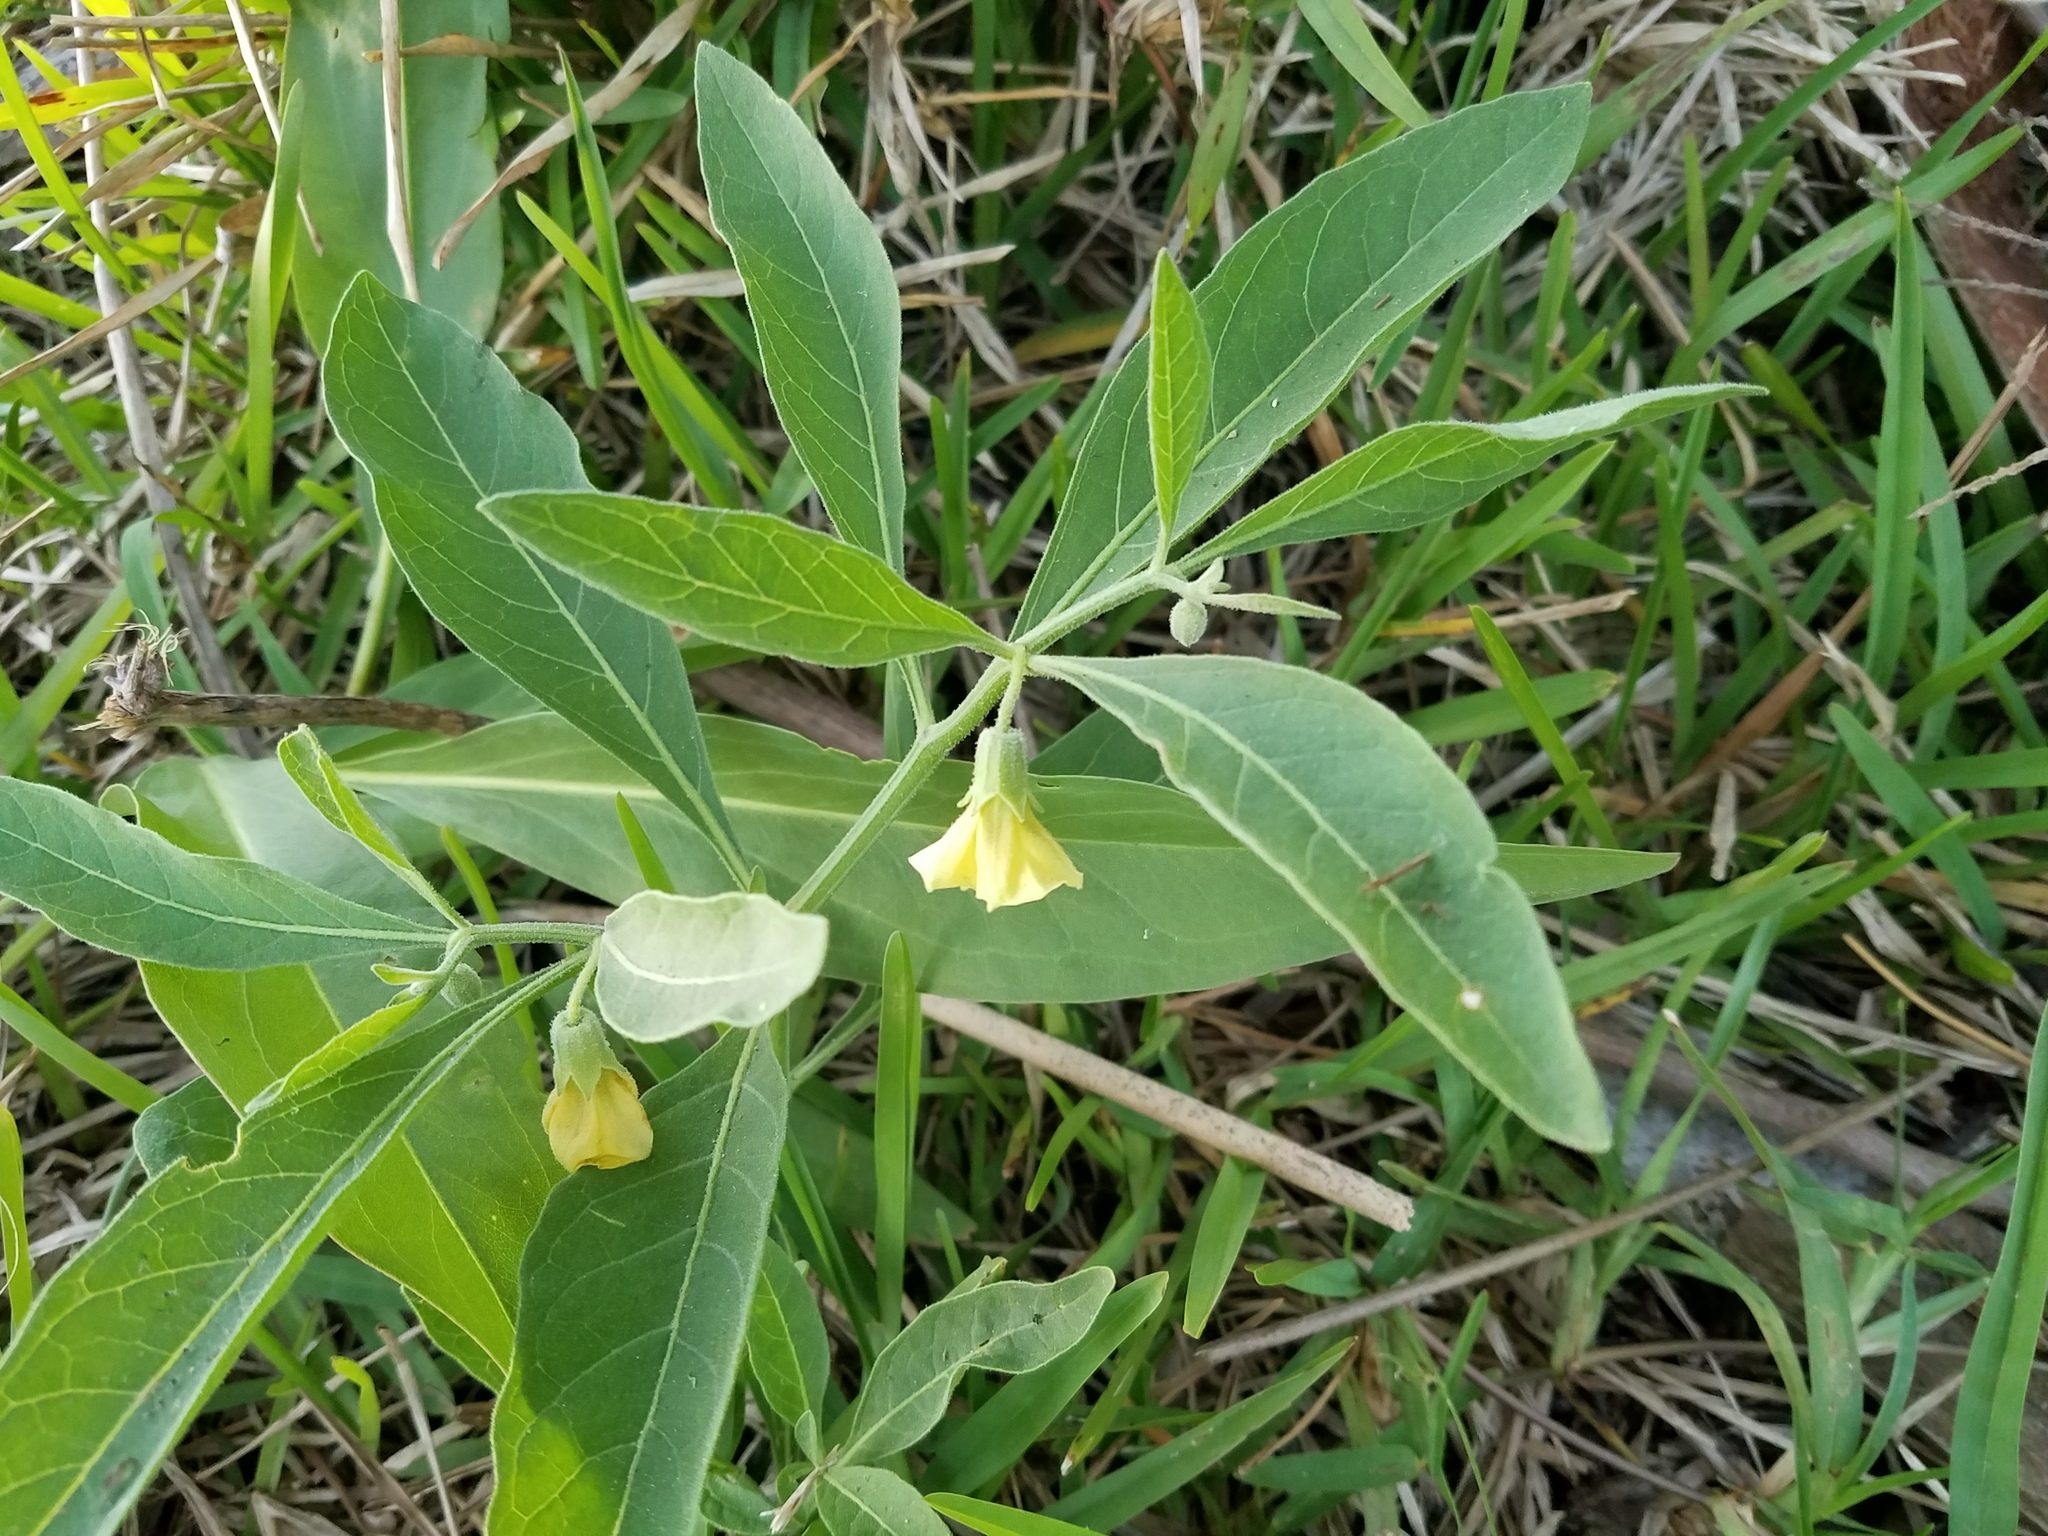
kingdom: Plantae
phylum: Tracheophyta
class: Magnoliopsida
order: Solanales
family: Solanaceae
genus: Physalis
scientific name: Physalis angustifolia
